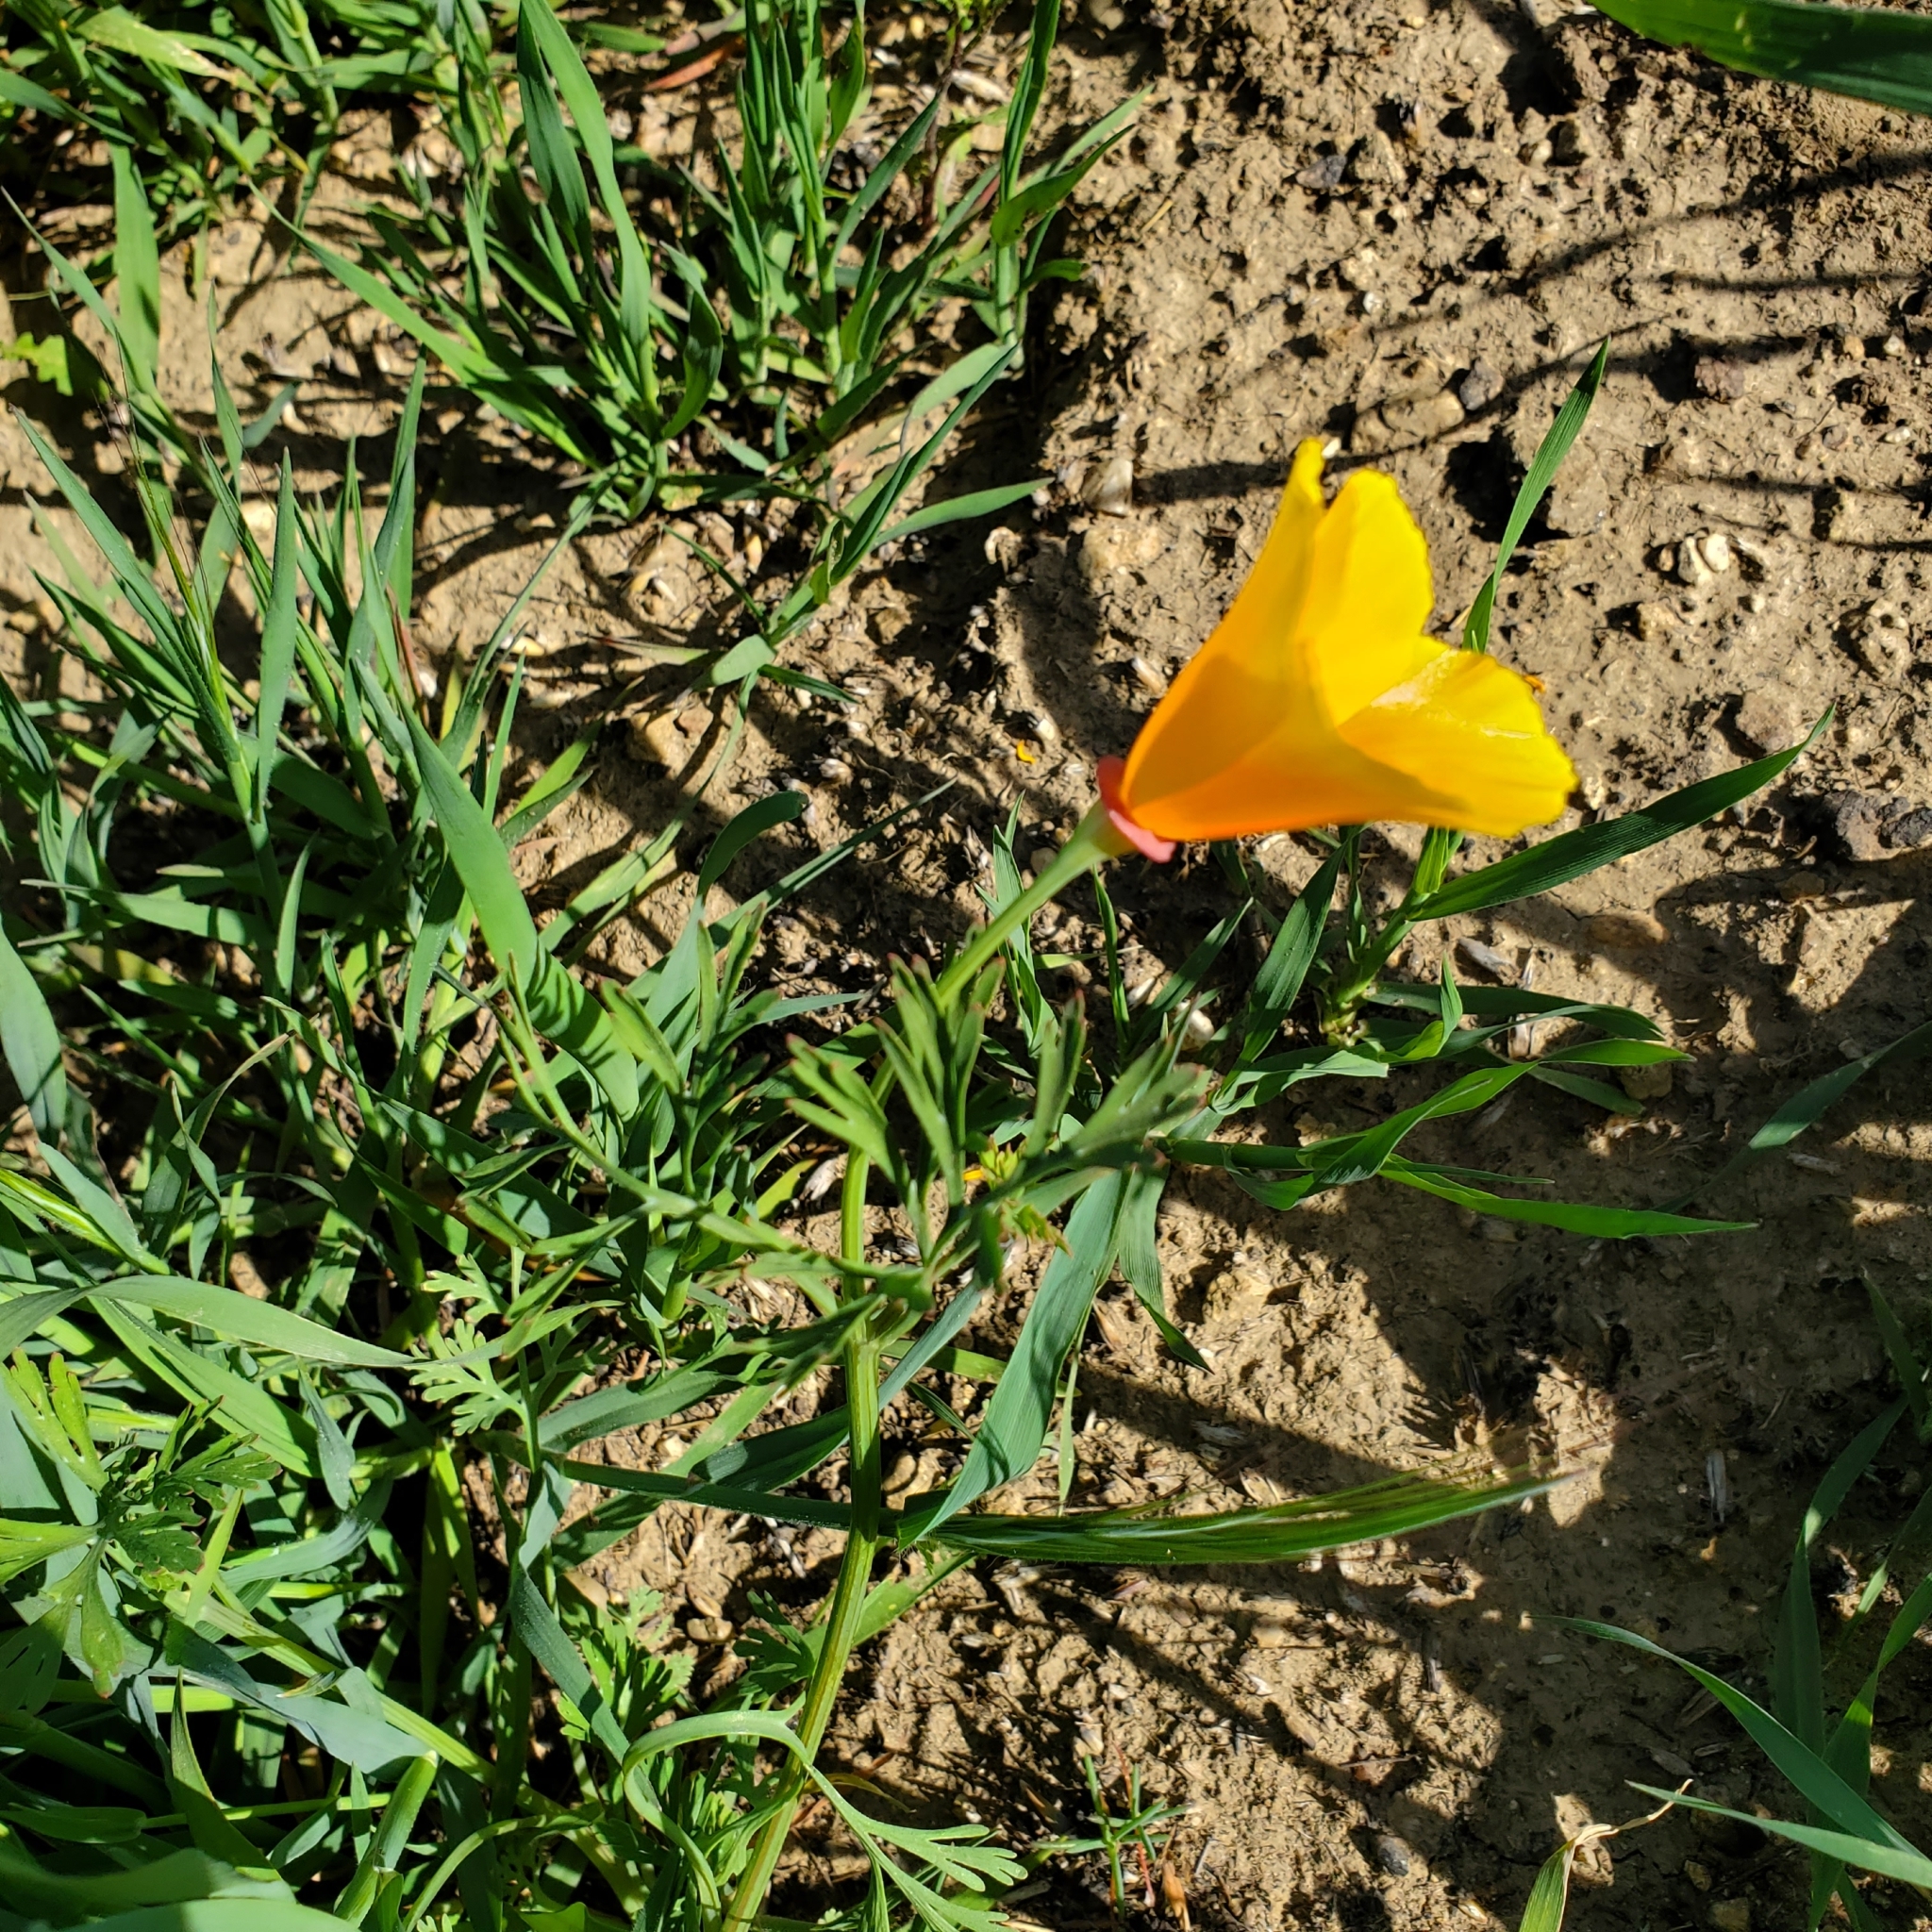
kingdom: Plantae
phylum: Tracheophyta
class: Magnoliopsida
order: Ranunculales
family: Papaveraceae
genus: Eschscholzia
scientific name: Eschscholzia californica
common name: California poppy
